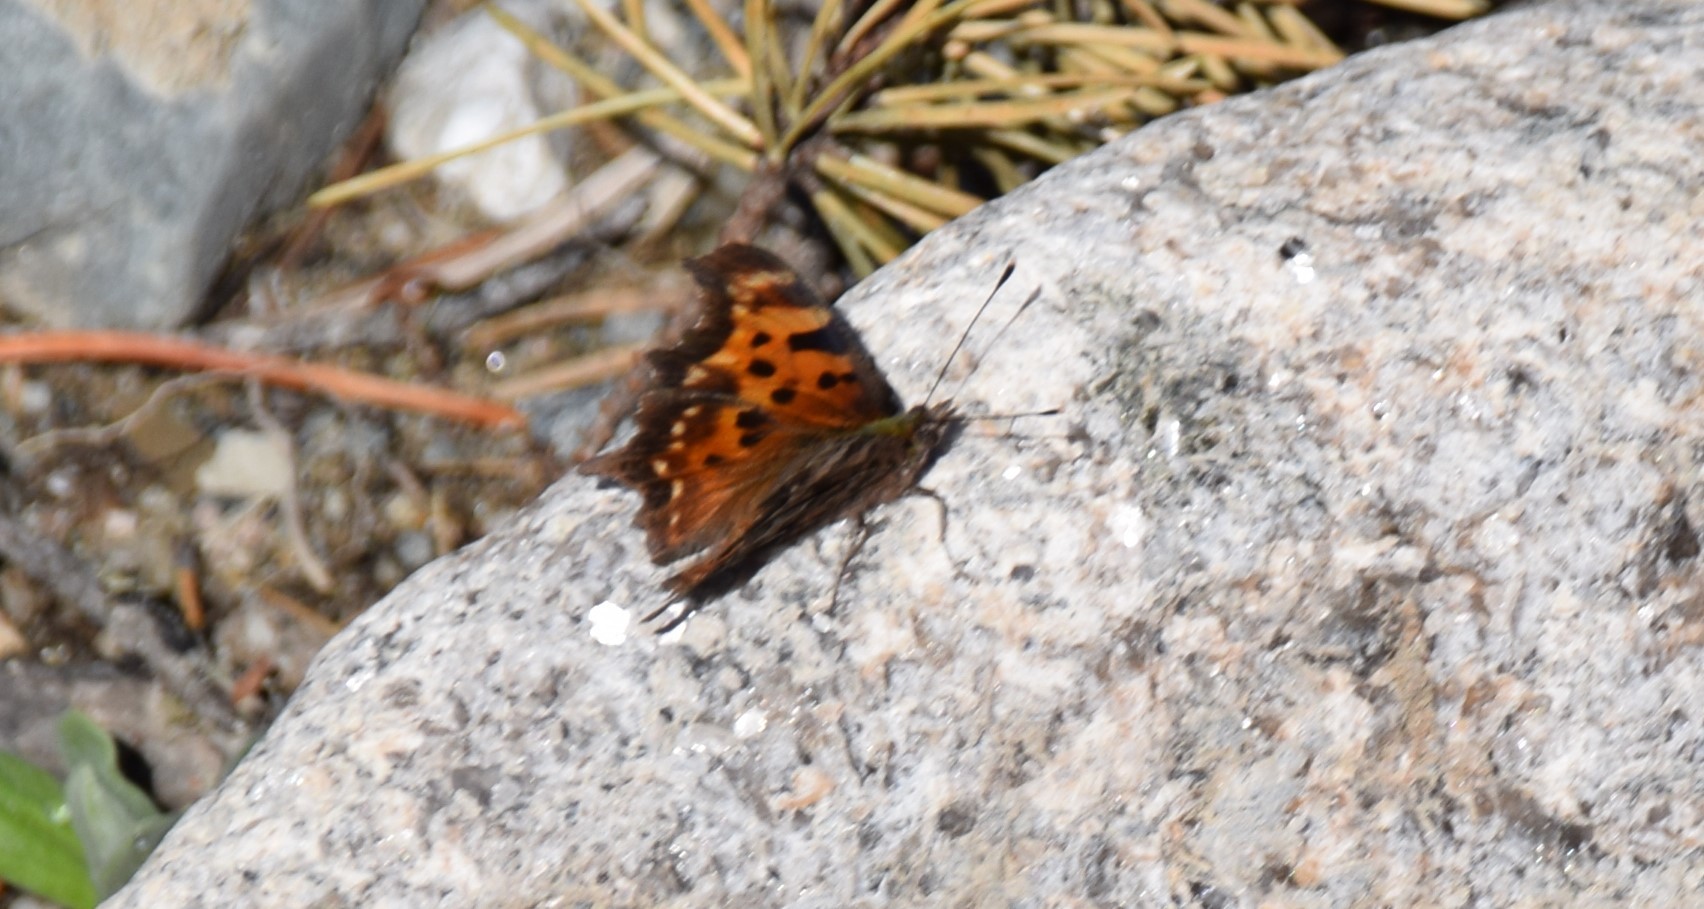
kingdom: Animalia
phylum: Arthropoda
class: Insecta
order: Lepidoptera
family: Nymphalidae
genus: Polygonia
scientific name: Polygonia faunus
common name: Green comma
